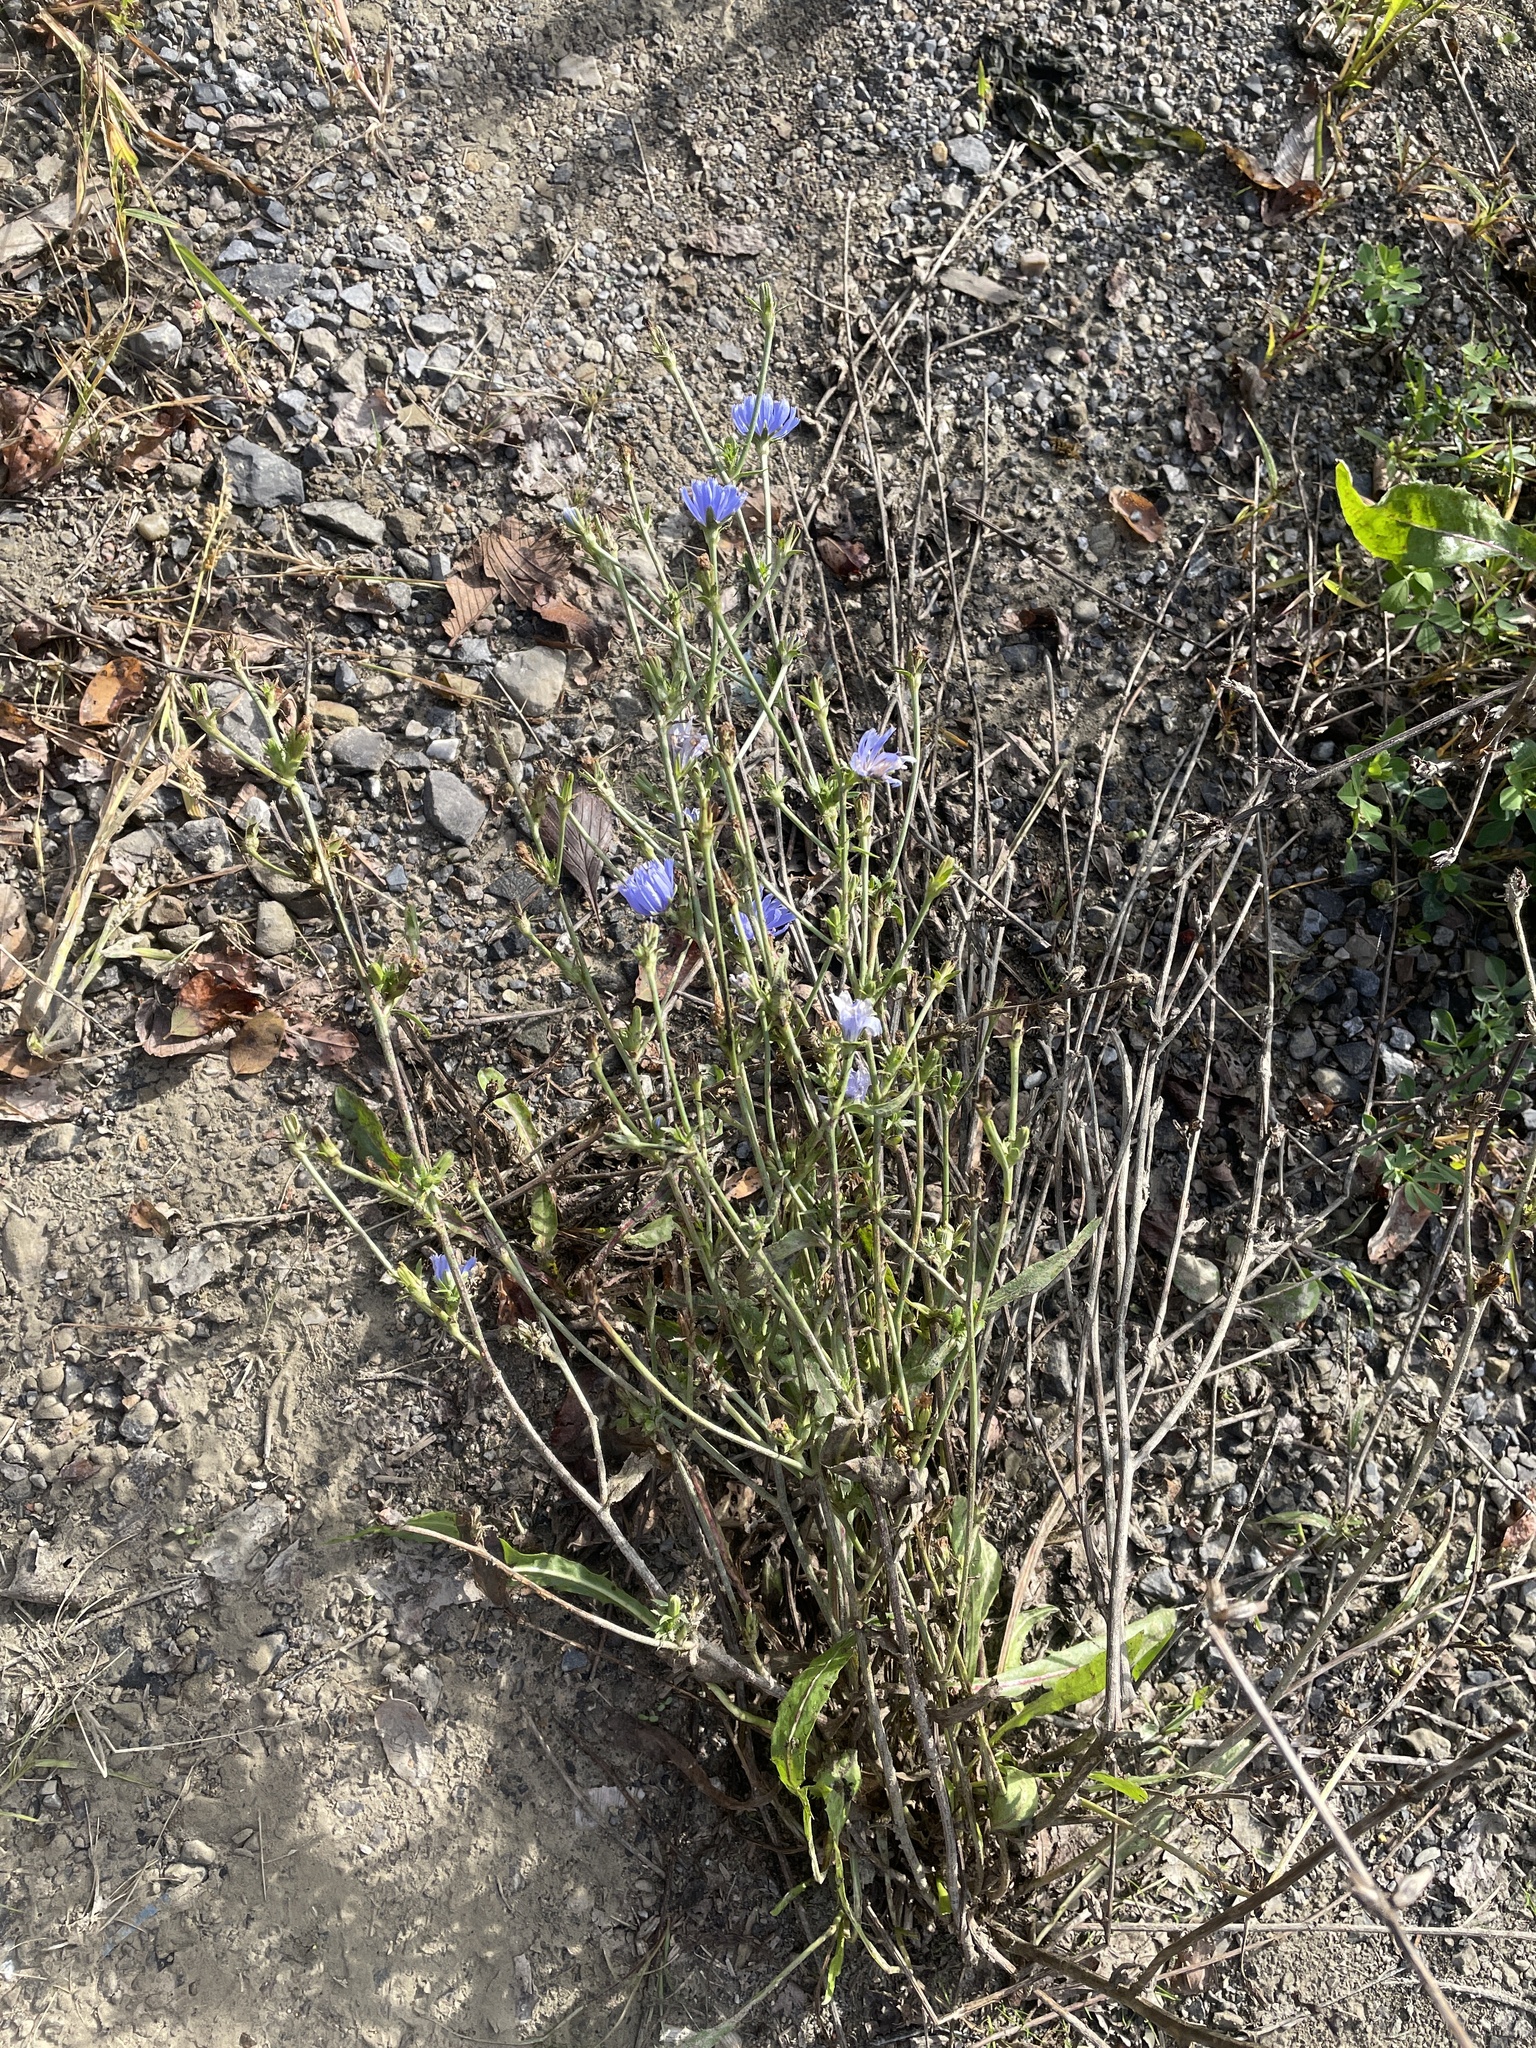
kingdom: Plantae
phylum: Tracheophyta
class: Magnoliopsida
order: Asterales
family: Asteraceae
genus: Cichorium
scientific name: Cichorium intybus
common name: Chicory
